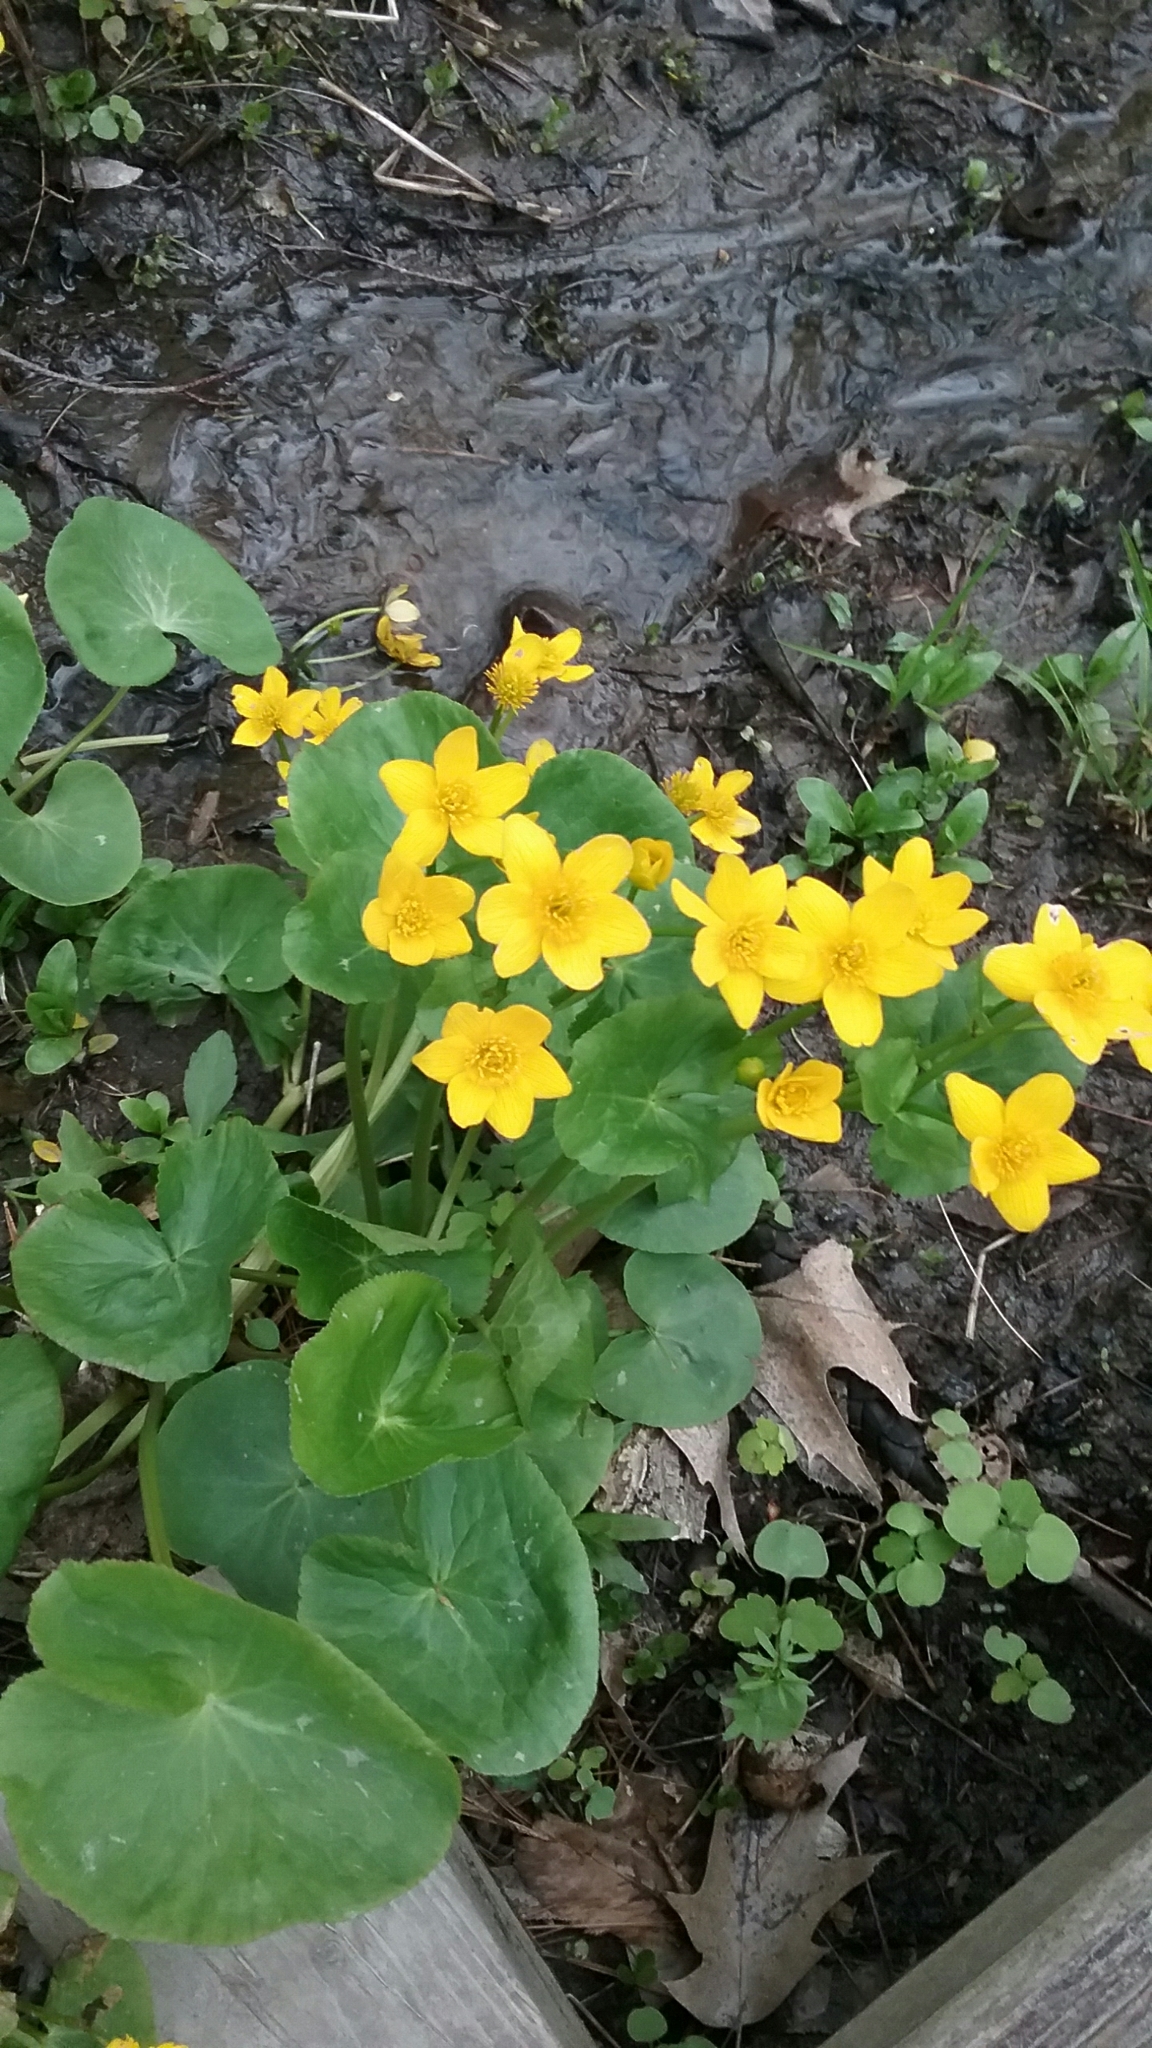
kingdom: Plantae
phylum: Tracheophyta
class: Magnoliopsida
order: Ranunculales
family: Ranunculaceae
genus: Caltha
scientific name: Caltha palustris
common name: Marsh marigold
